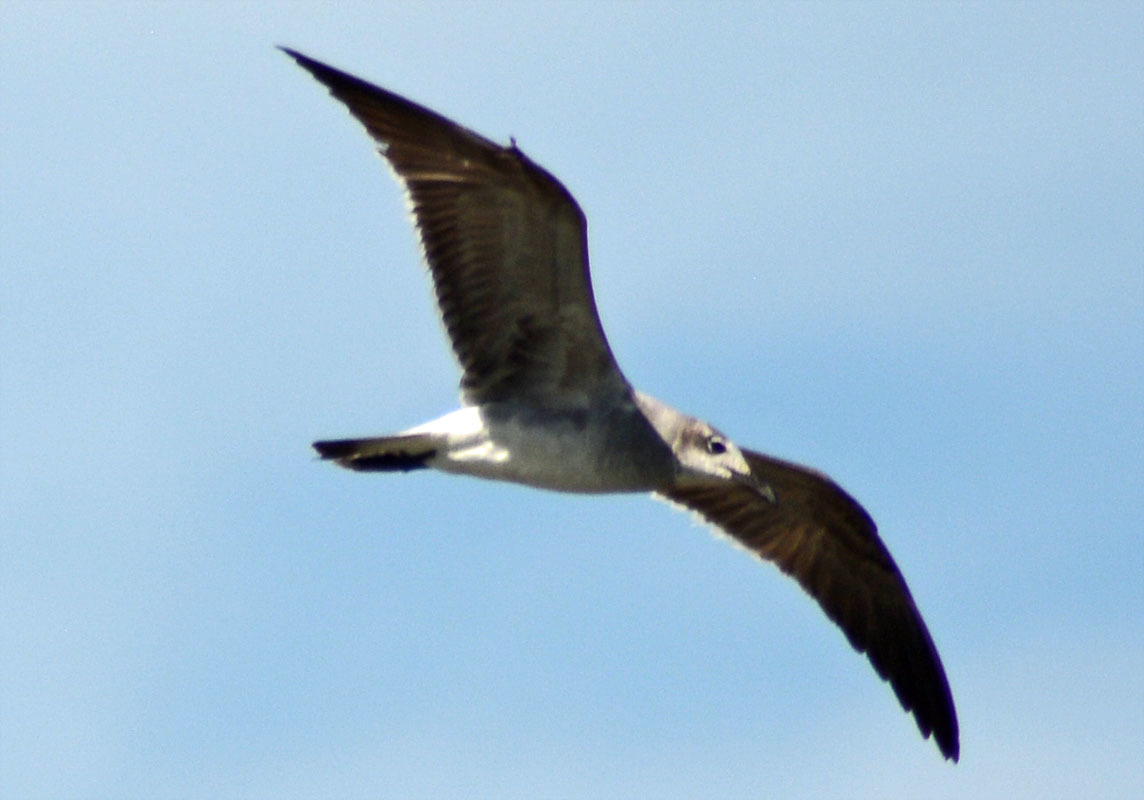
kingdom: Animalia
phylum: Chordata
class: Aves
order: Charadriiformes
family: Laridae
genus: Leucophaeus
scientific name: Leucophaeus atricilla
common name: Laughing gull
